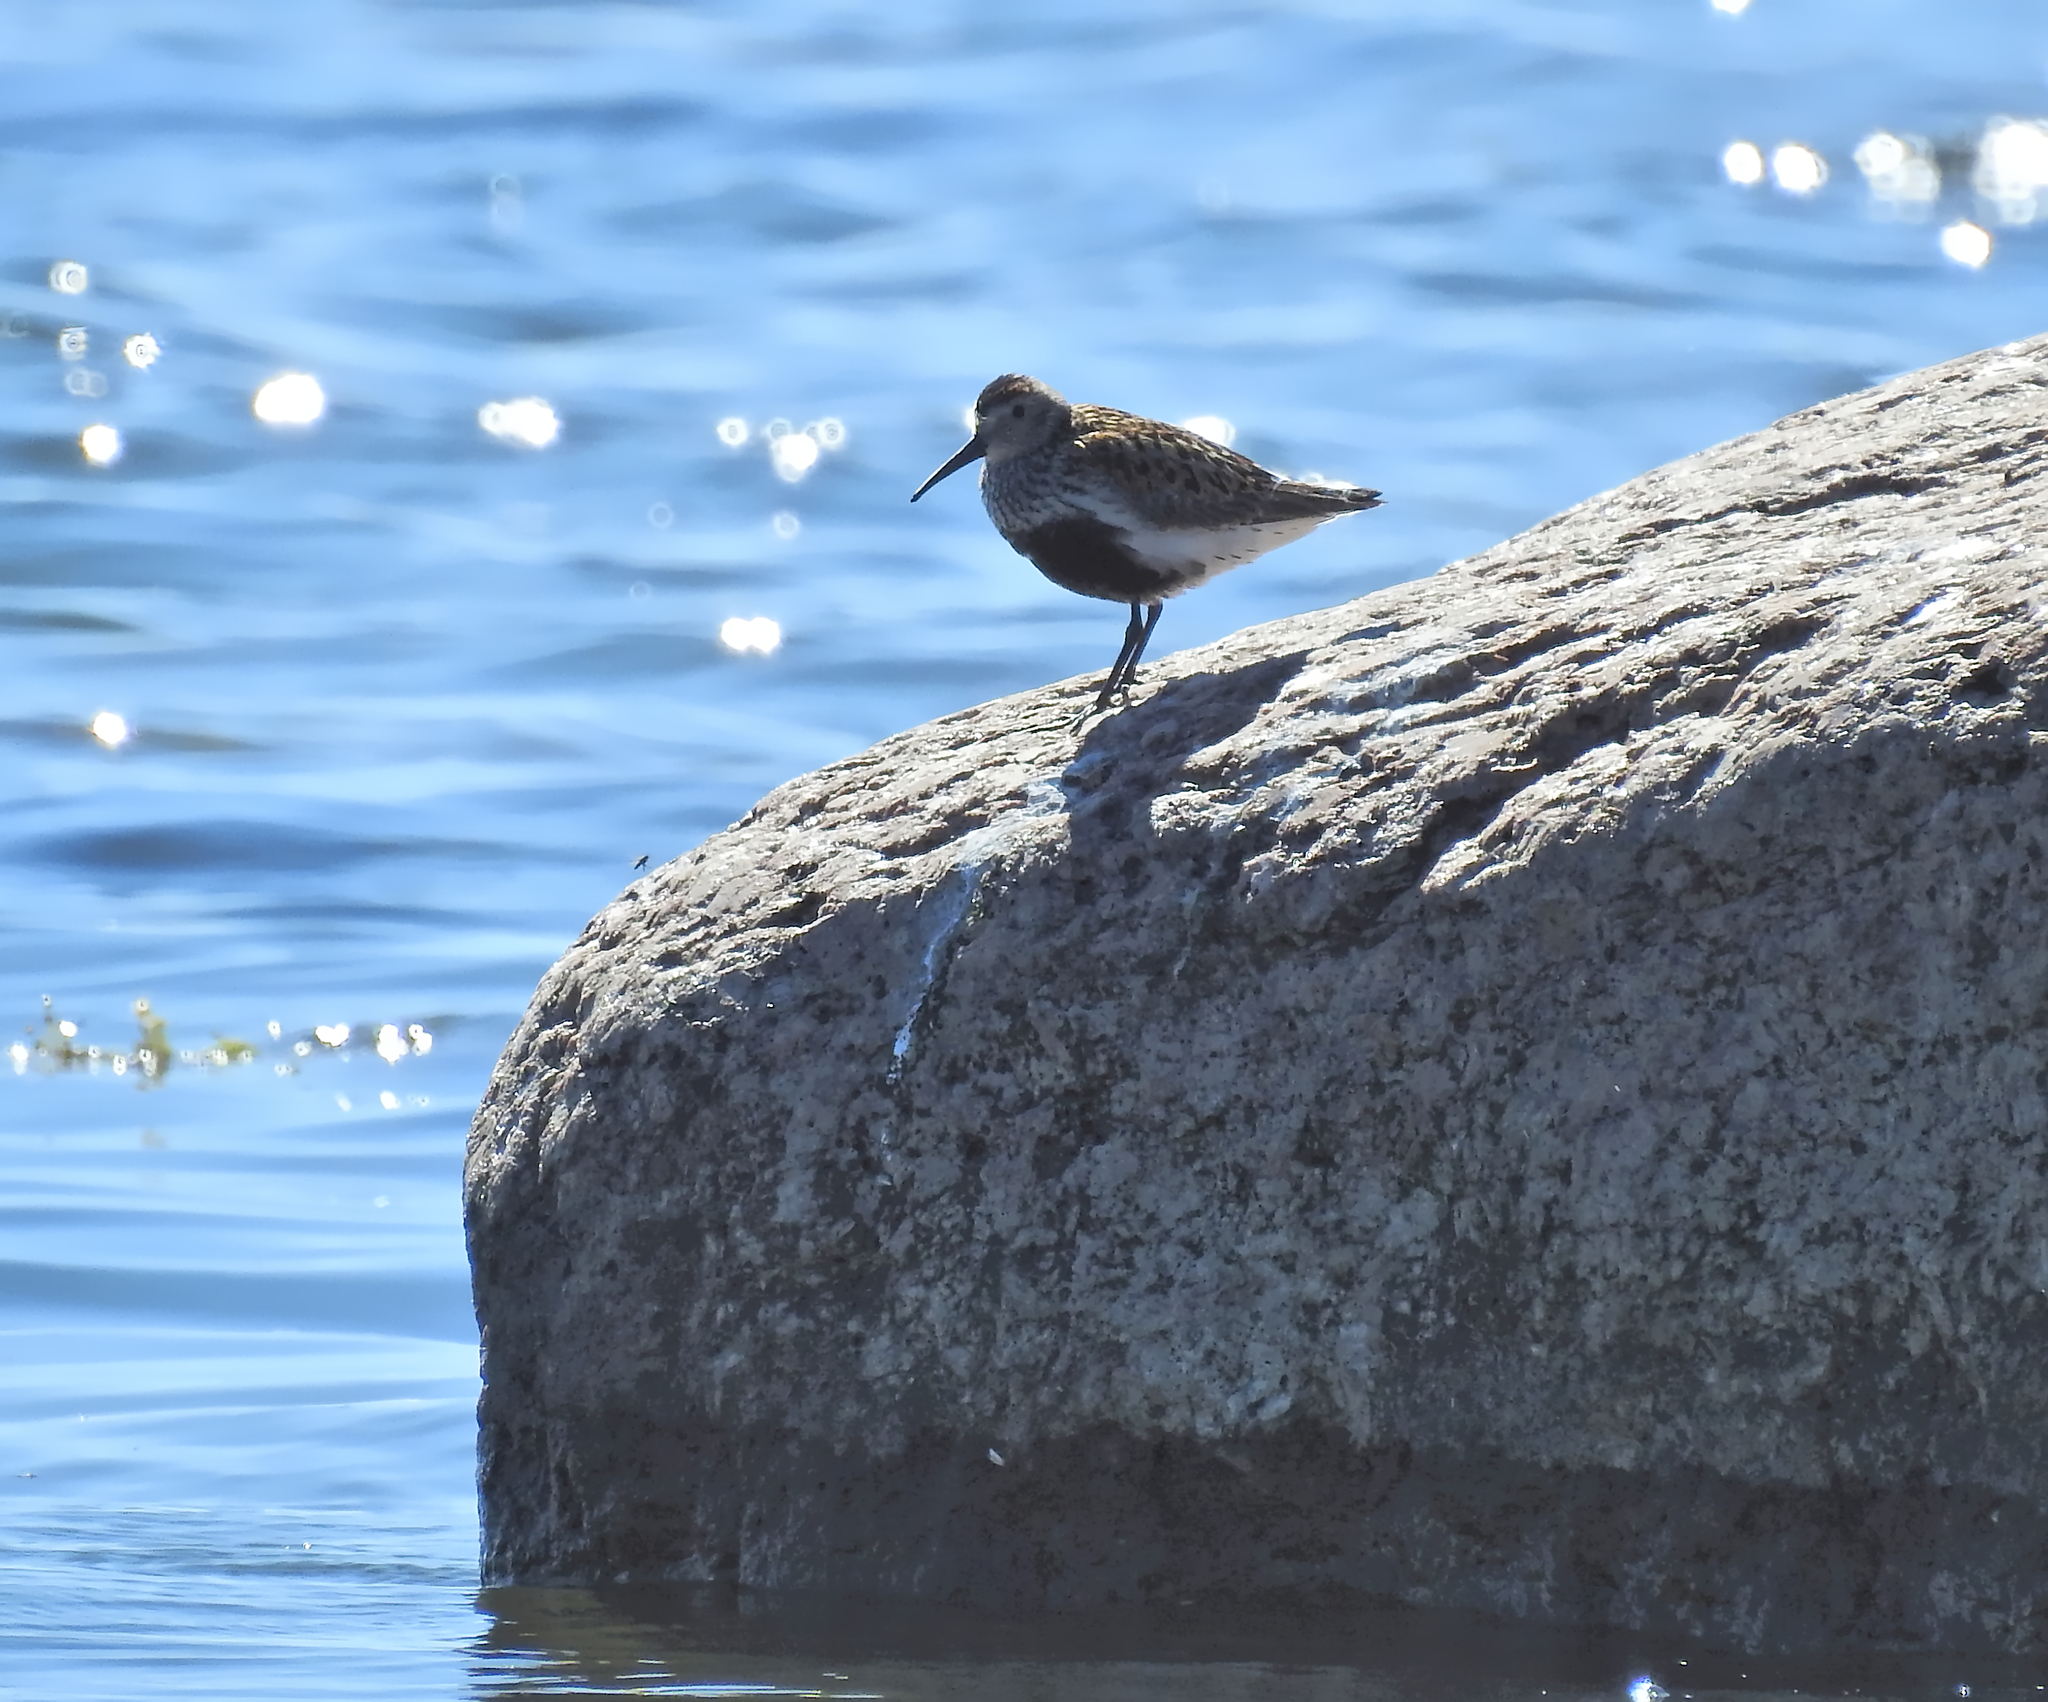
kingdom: Animalia
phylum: Chordata
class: Aves
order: Charadriiformes
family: Scolopacidae
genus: Calidris
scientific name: Calidris alpina
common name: Dunlin
